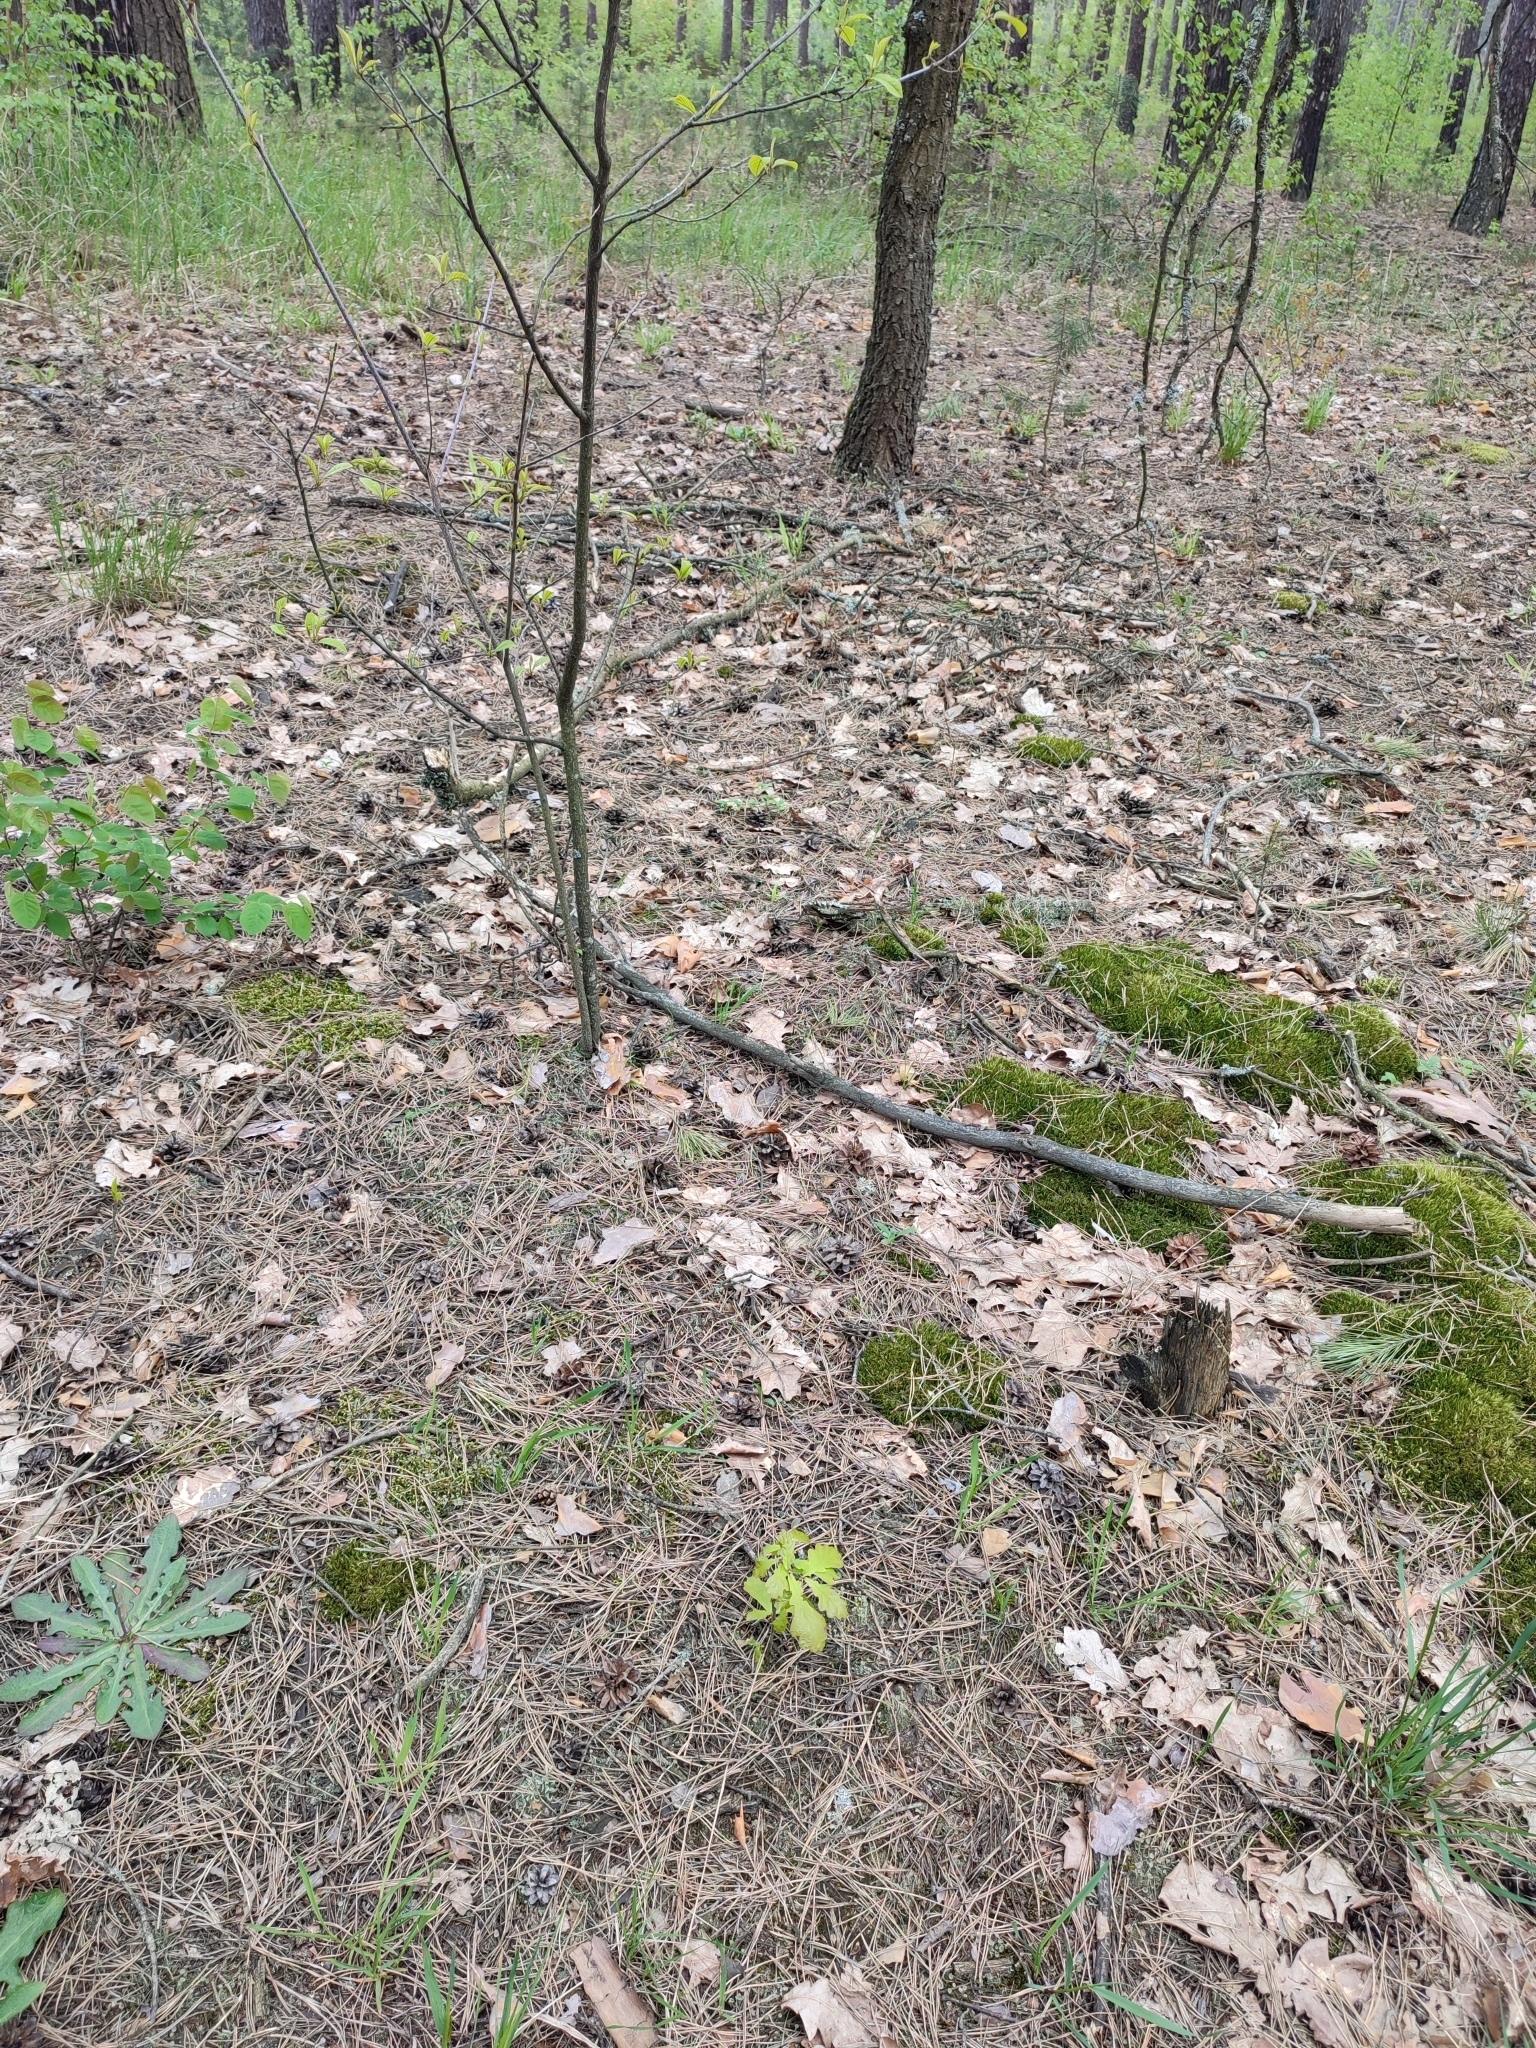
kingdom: Plantae
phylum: Tracheophyta
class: Magnoliopsida
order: Fagales
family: Fagaceae
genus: Quercus
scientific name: Quercus robur
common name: Pedunculate oak
